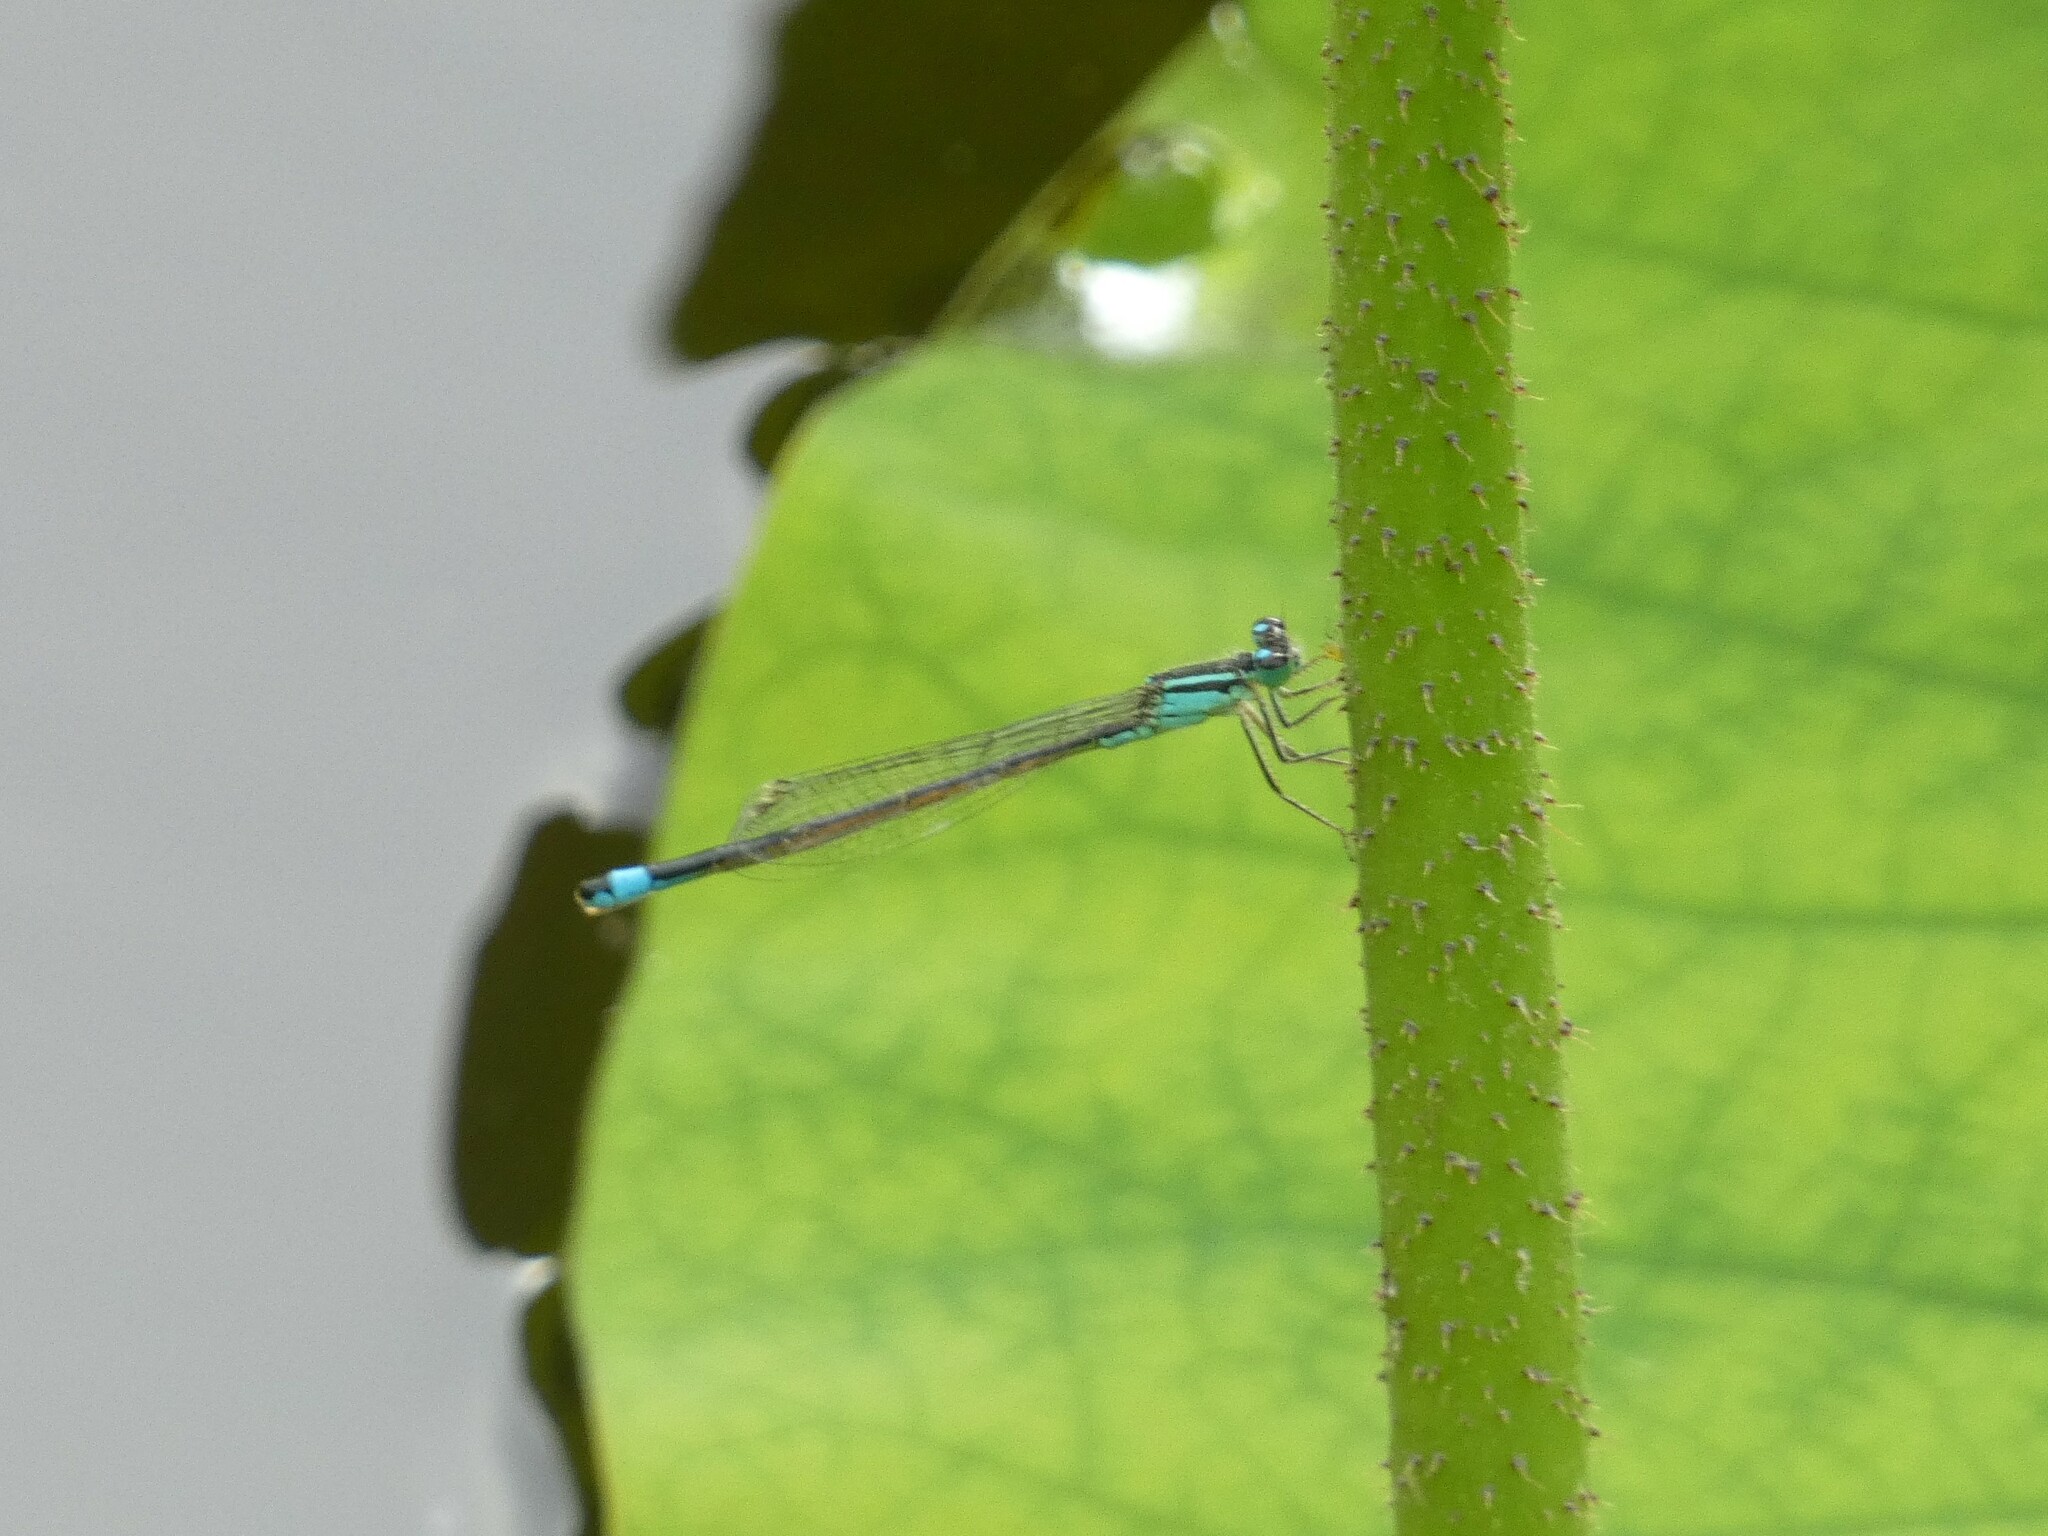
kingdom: Animalia
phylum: Arthropoda
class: Insecta
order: Odonata
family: Coenagrionidae
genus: Ischnura
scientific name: Ischnura elegans
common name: Blue-tailed damselfly
